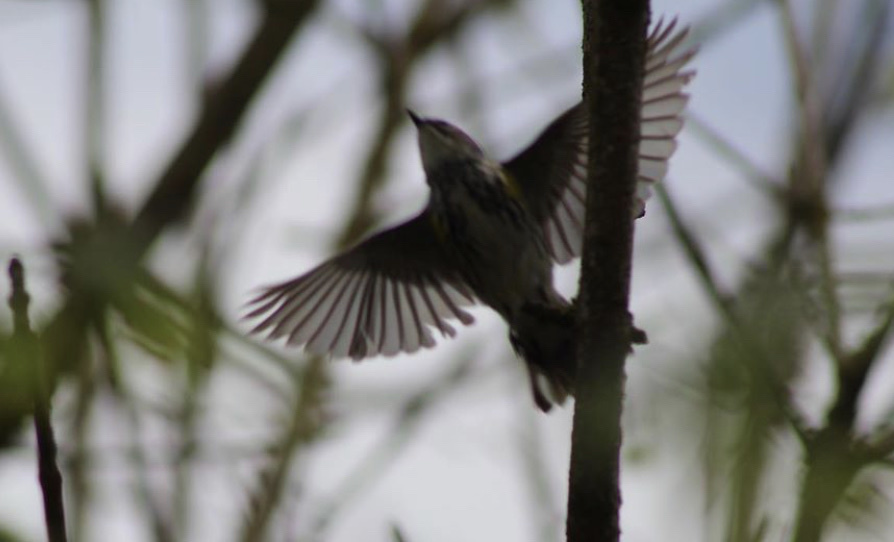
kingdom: Animalia
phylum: Chordata
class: Aves
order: Passeriformes
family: Parulidae
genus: Setophaga
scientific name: Setophaga coronata
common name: Myrtle warbler
